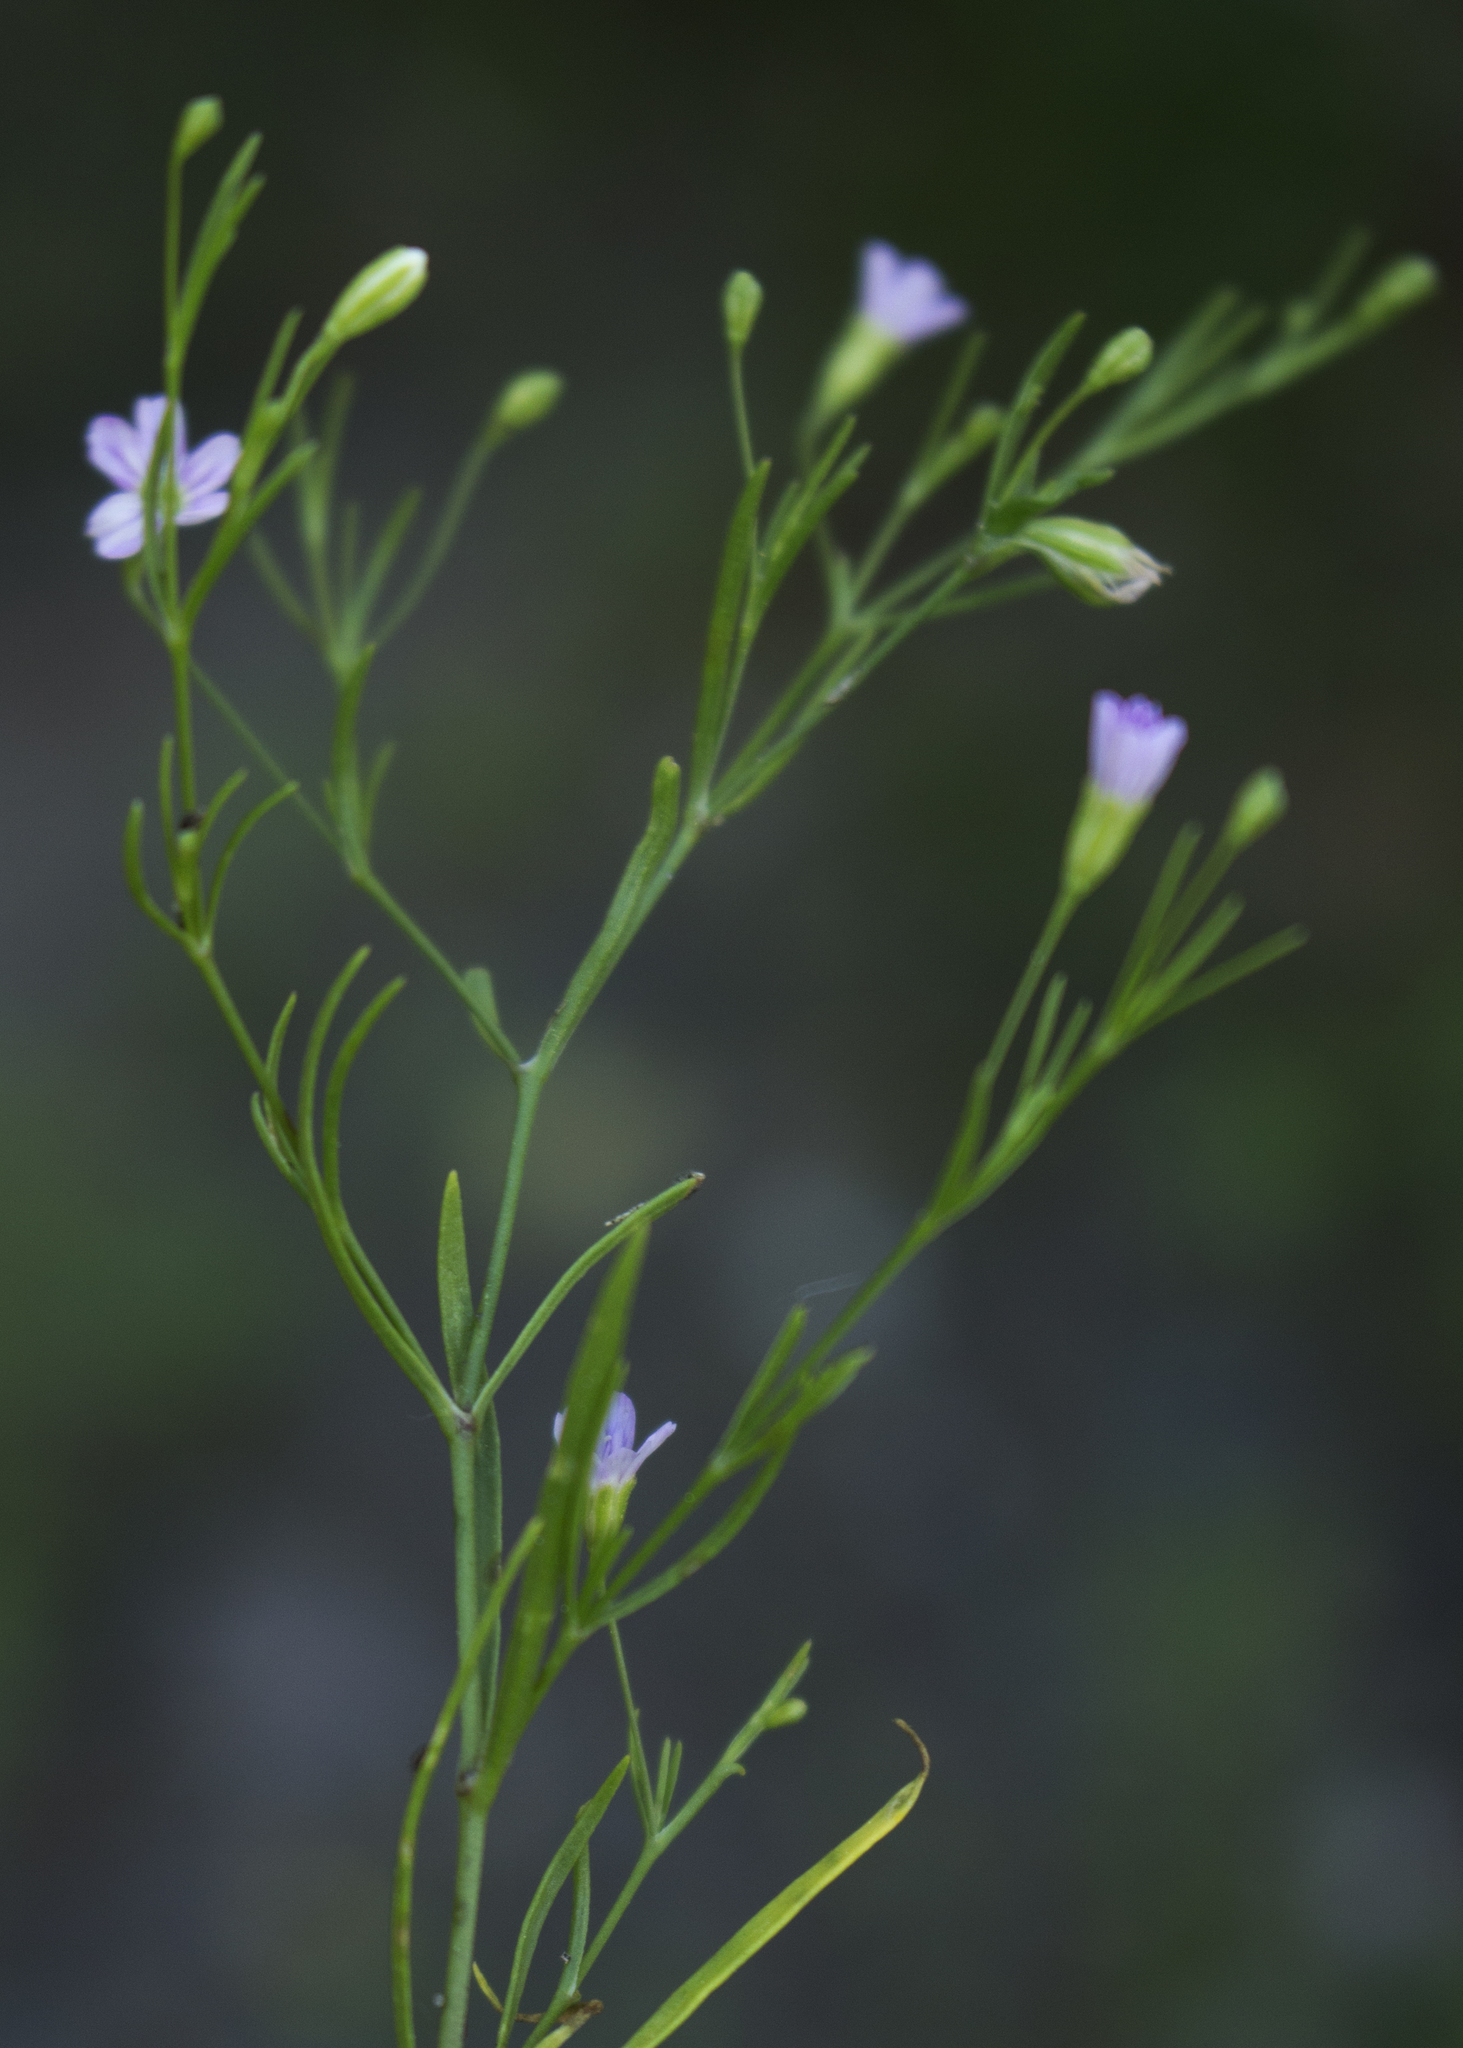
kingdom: Plantae
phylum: Tracheophyta
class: Magnoliopsida
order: Caryophyllales
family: Caryophyllaceae
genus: Psammophiliella
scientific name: Psammophiliella muralis
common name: Cushion baby's-breath
